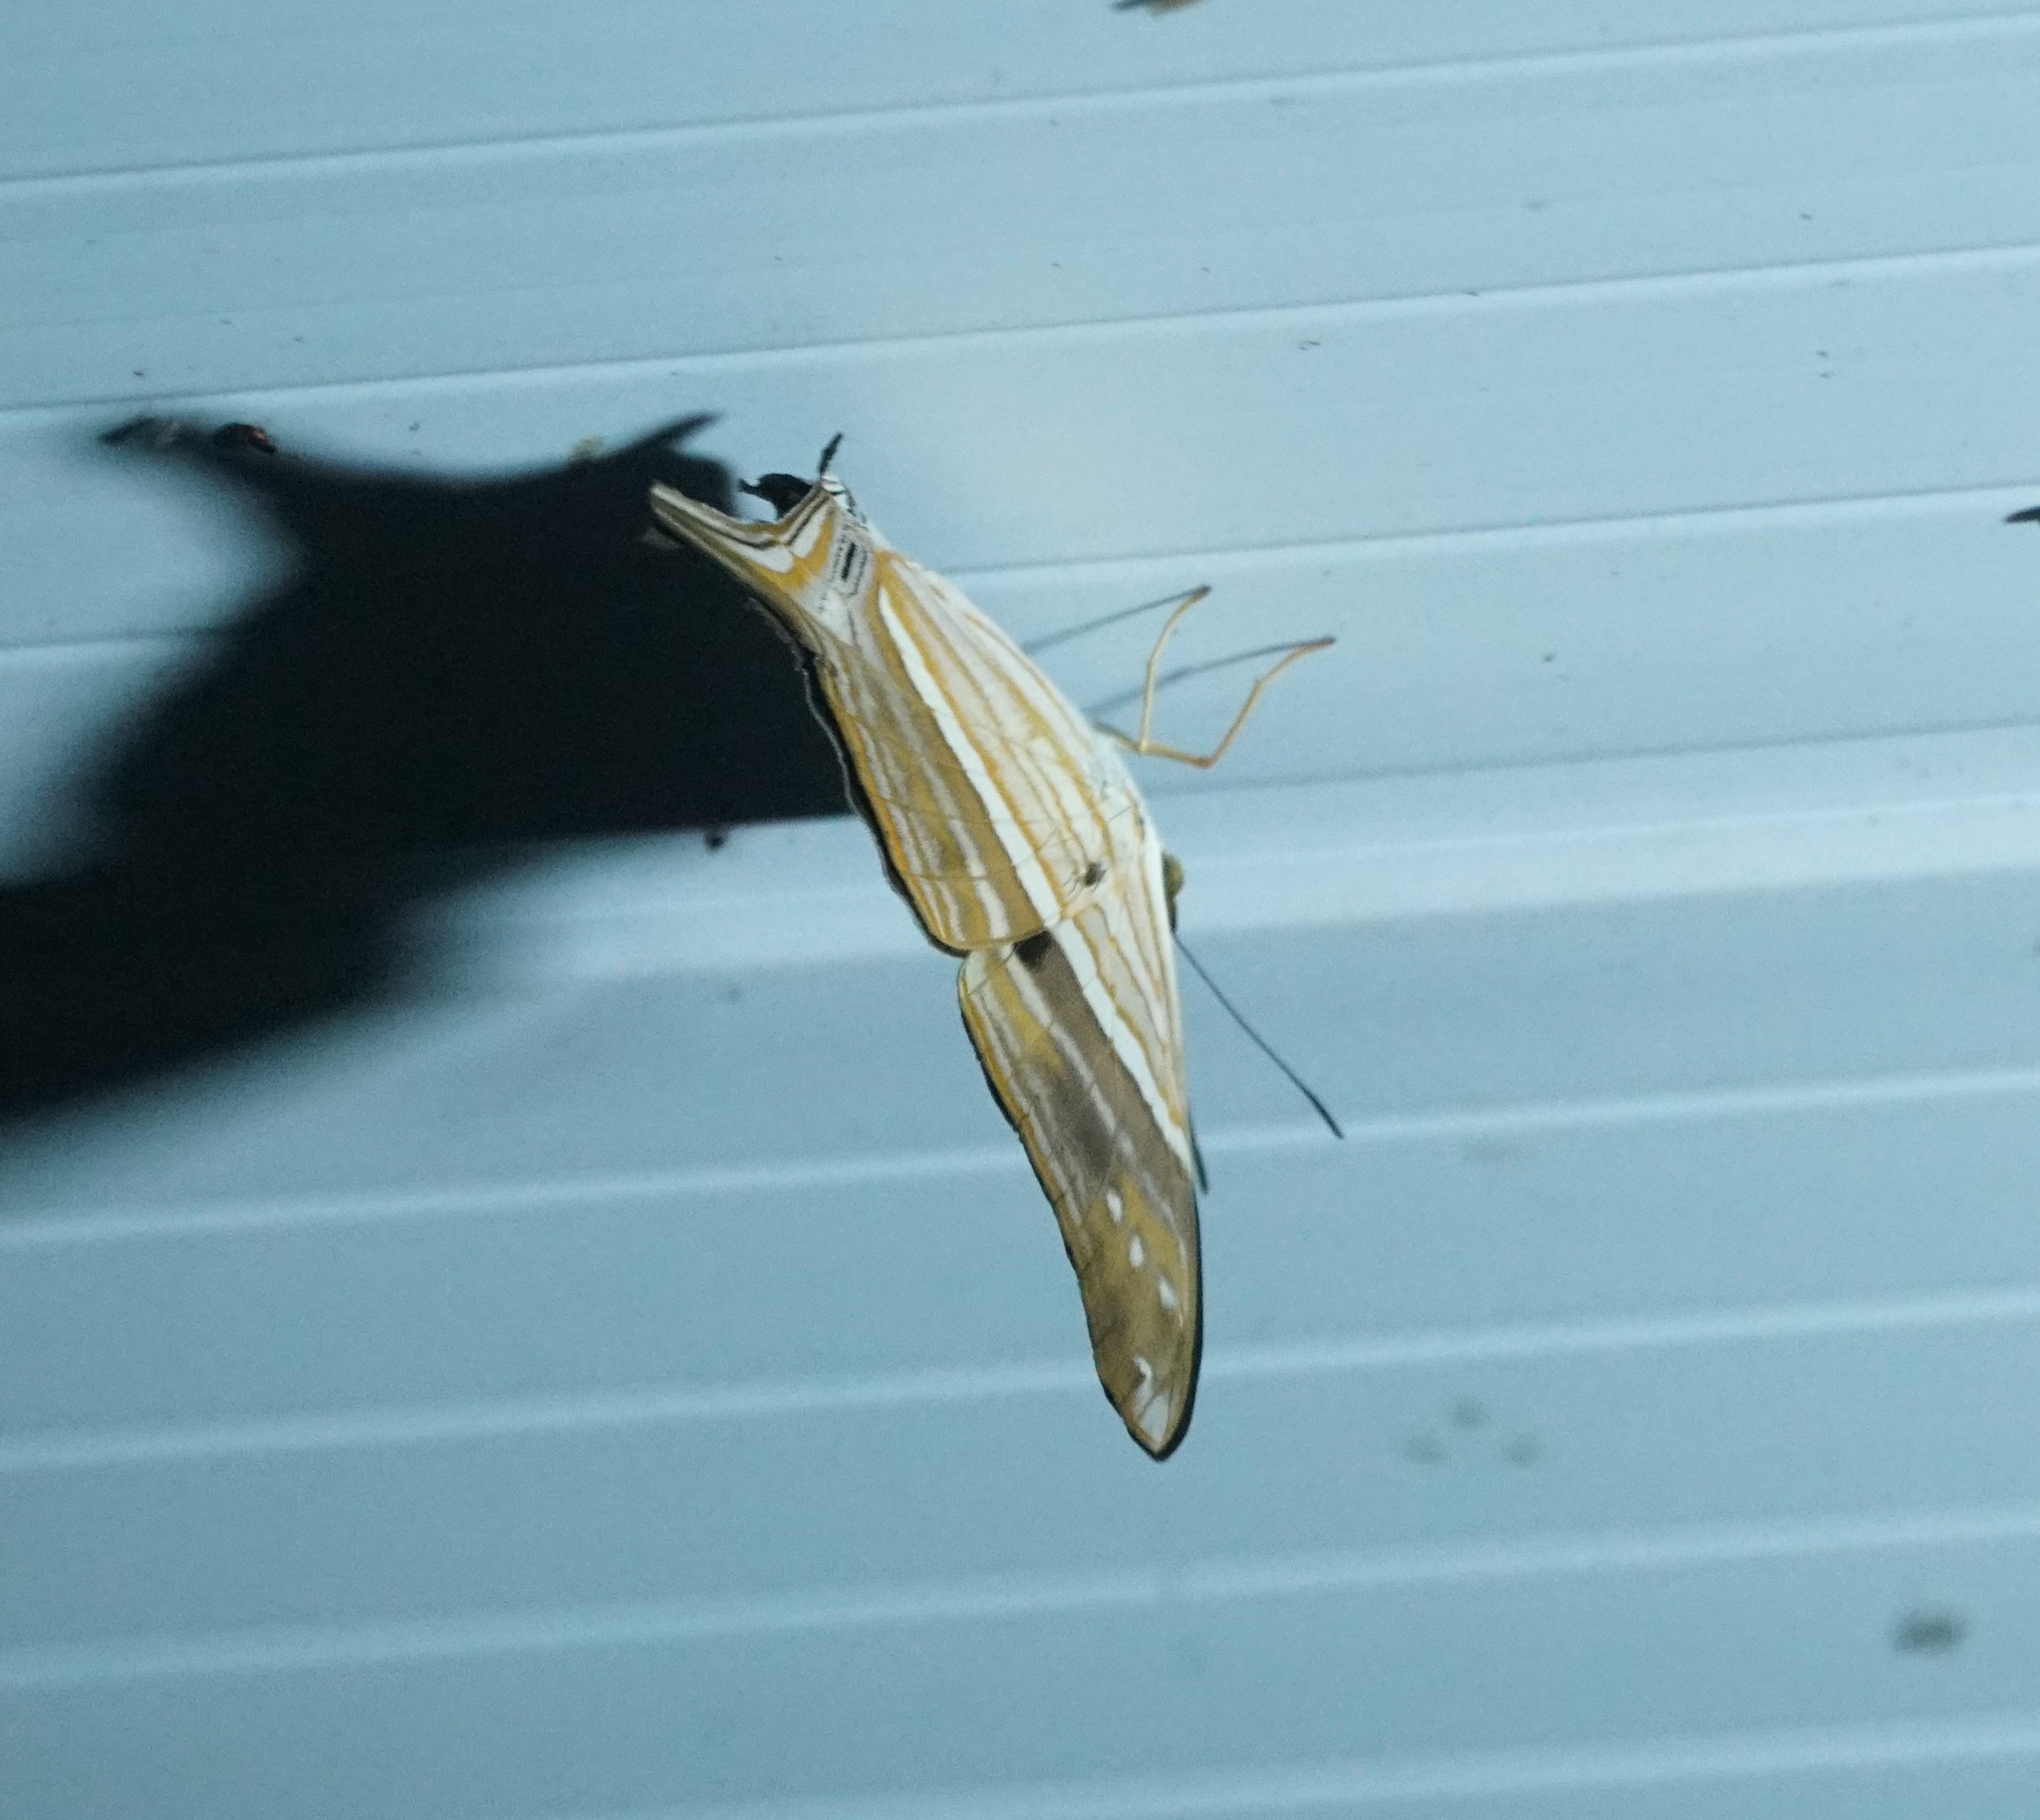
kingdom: Animalia
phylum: Arthropoda
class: Insecta
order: Lepidoptera
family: Nymphalidae
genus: Marpesia
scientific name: Marpesia chiron
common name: Many-banded daggerwing
